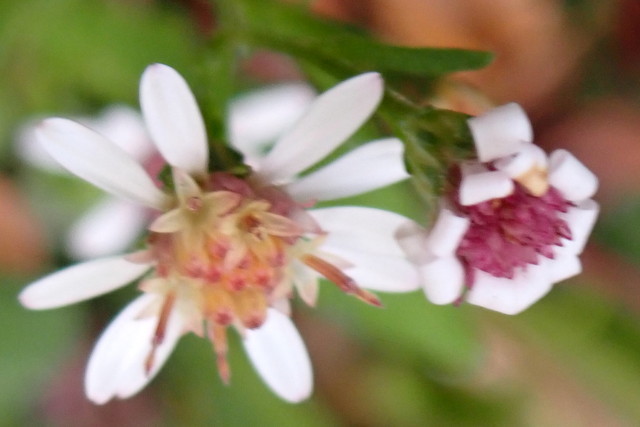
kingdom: Plantae
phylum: Tracheophyta
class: Magnoliopsida
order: Asterales
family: Asteraceae
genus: Symphyotrichum
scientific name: Symphyotrichum lateriflorum
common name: Calico aster
